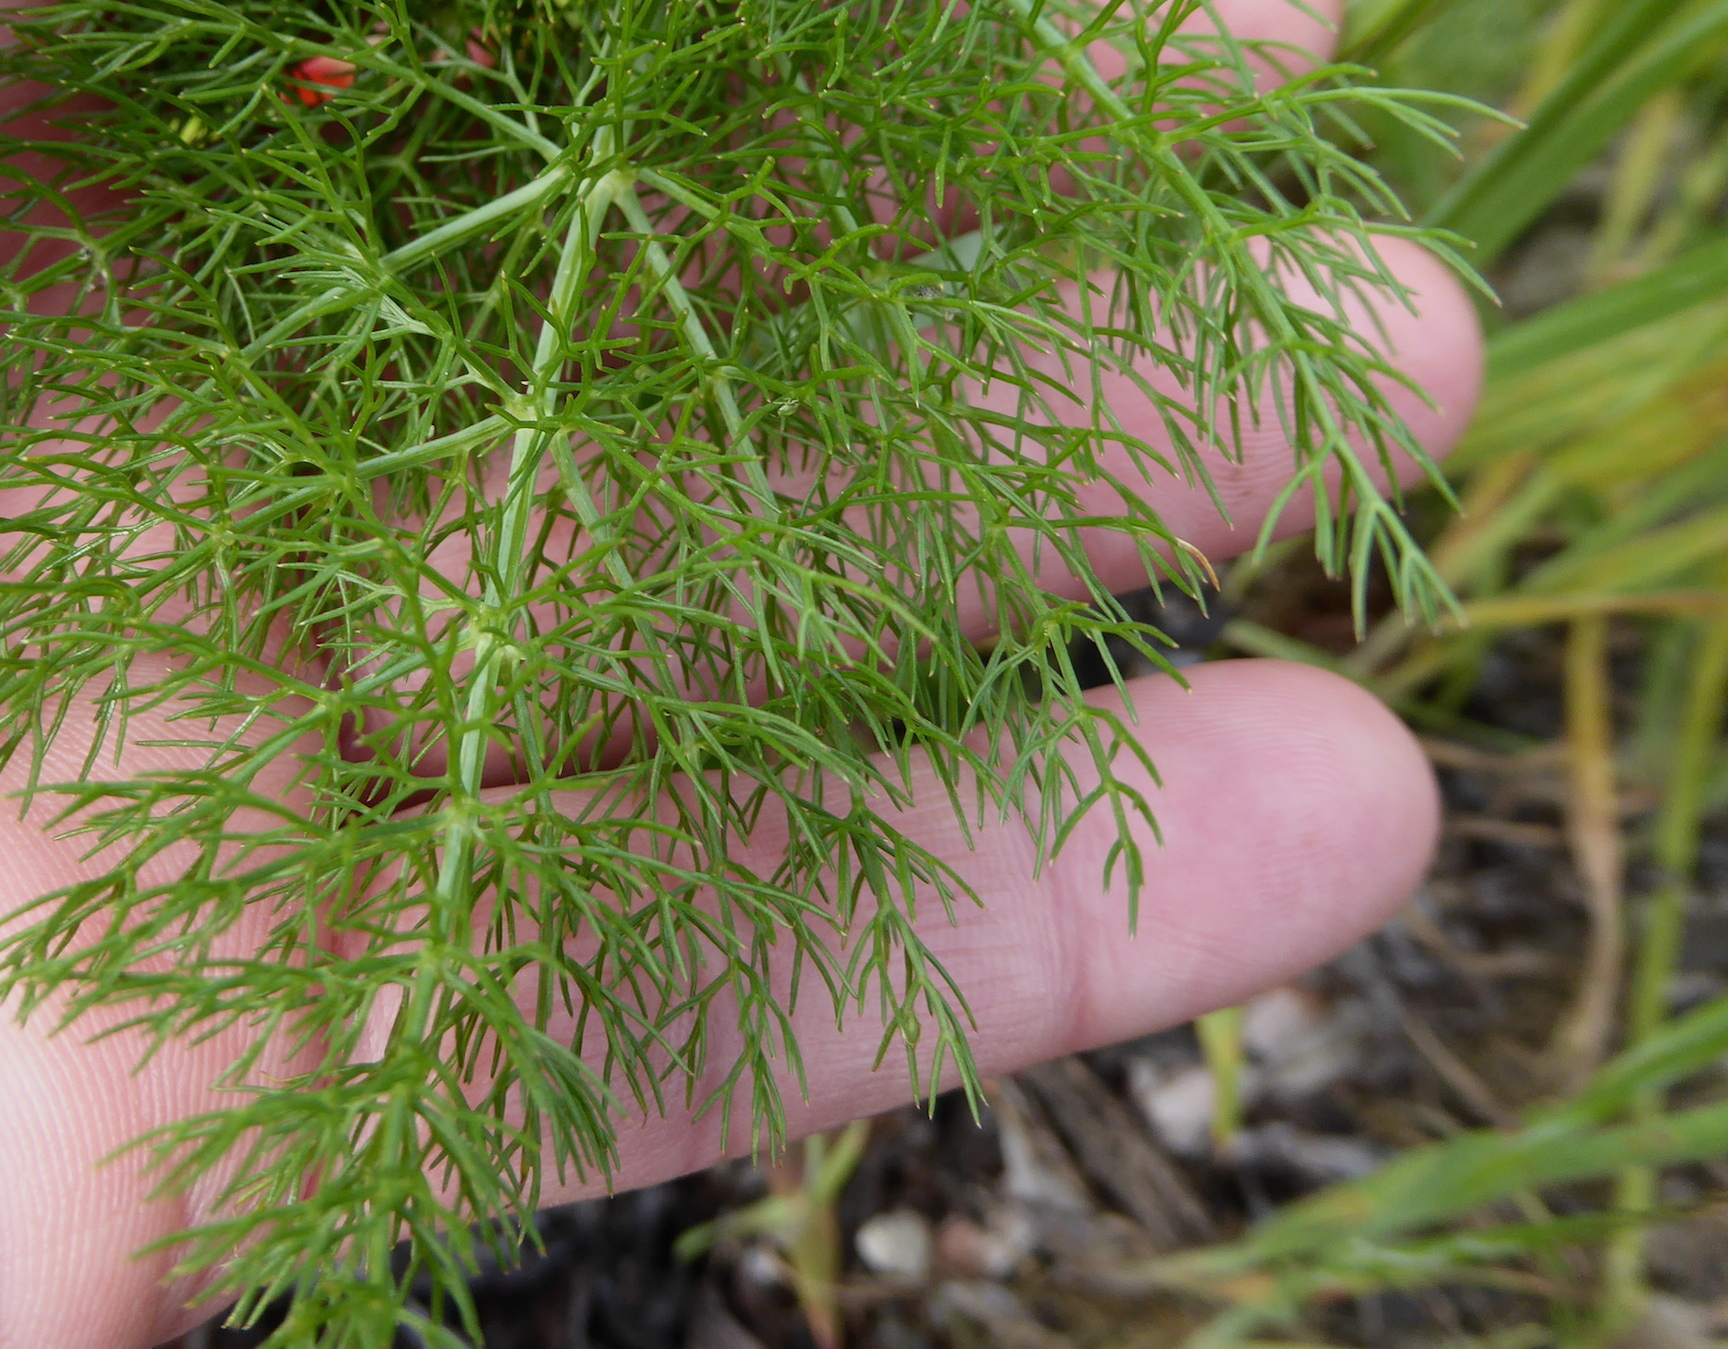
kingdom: Plantae
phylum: Tracheophyta
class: Magnoliopsida
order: Apiales
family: Apiaceae
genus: Foeniculum
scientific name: Foeniculum vulgare
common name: Fennel
